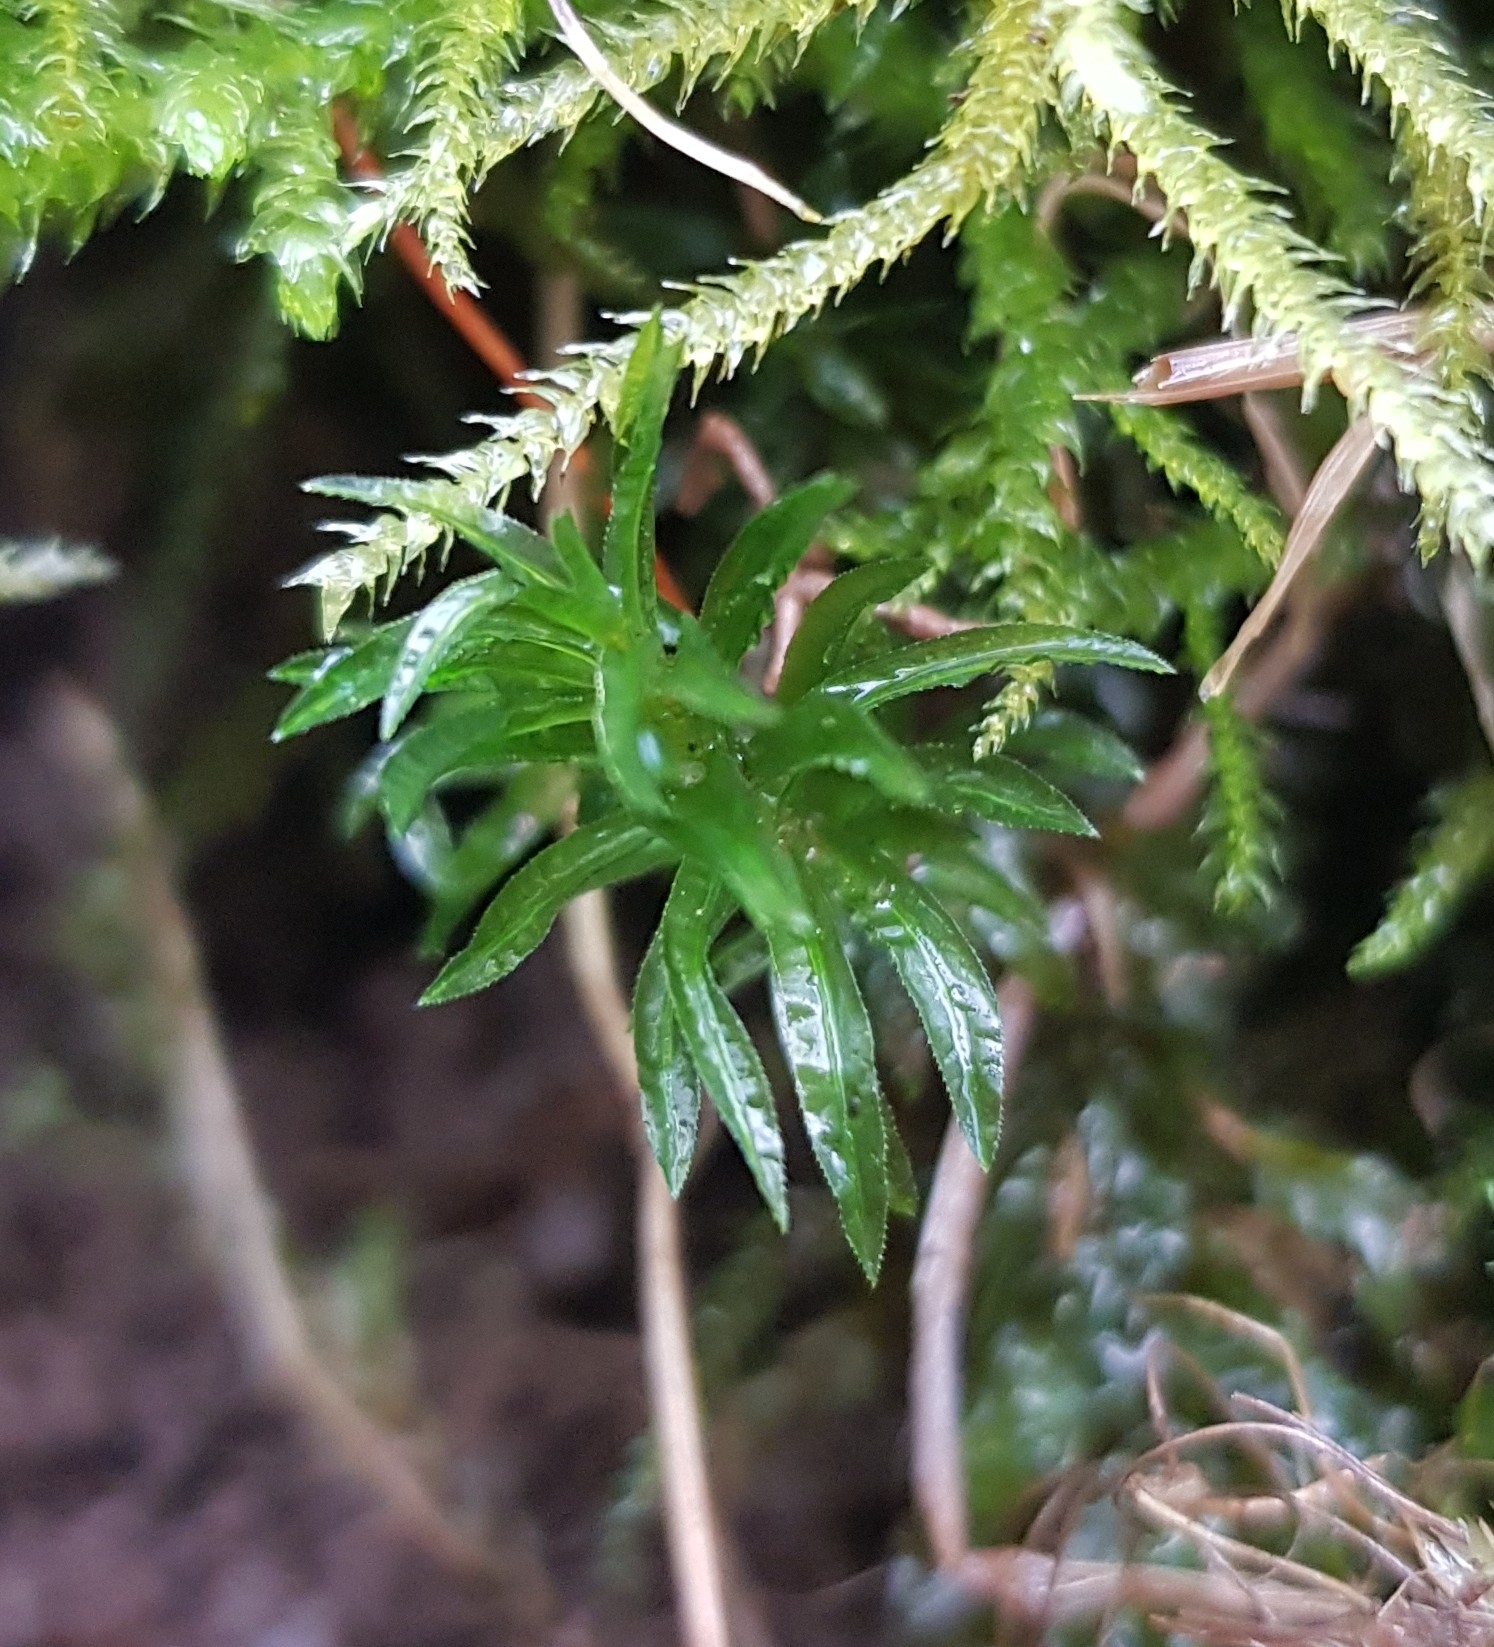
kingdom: Plantae
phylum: Bryophyta
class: Polytrichopsida
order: Polytrichales
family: Polytrichaceae
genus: Atrichum
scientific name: Atrichum undulatum
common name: Common smoothcap
